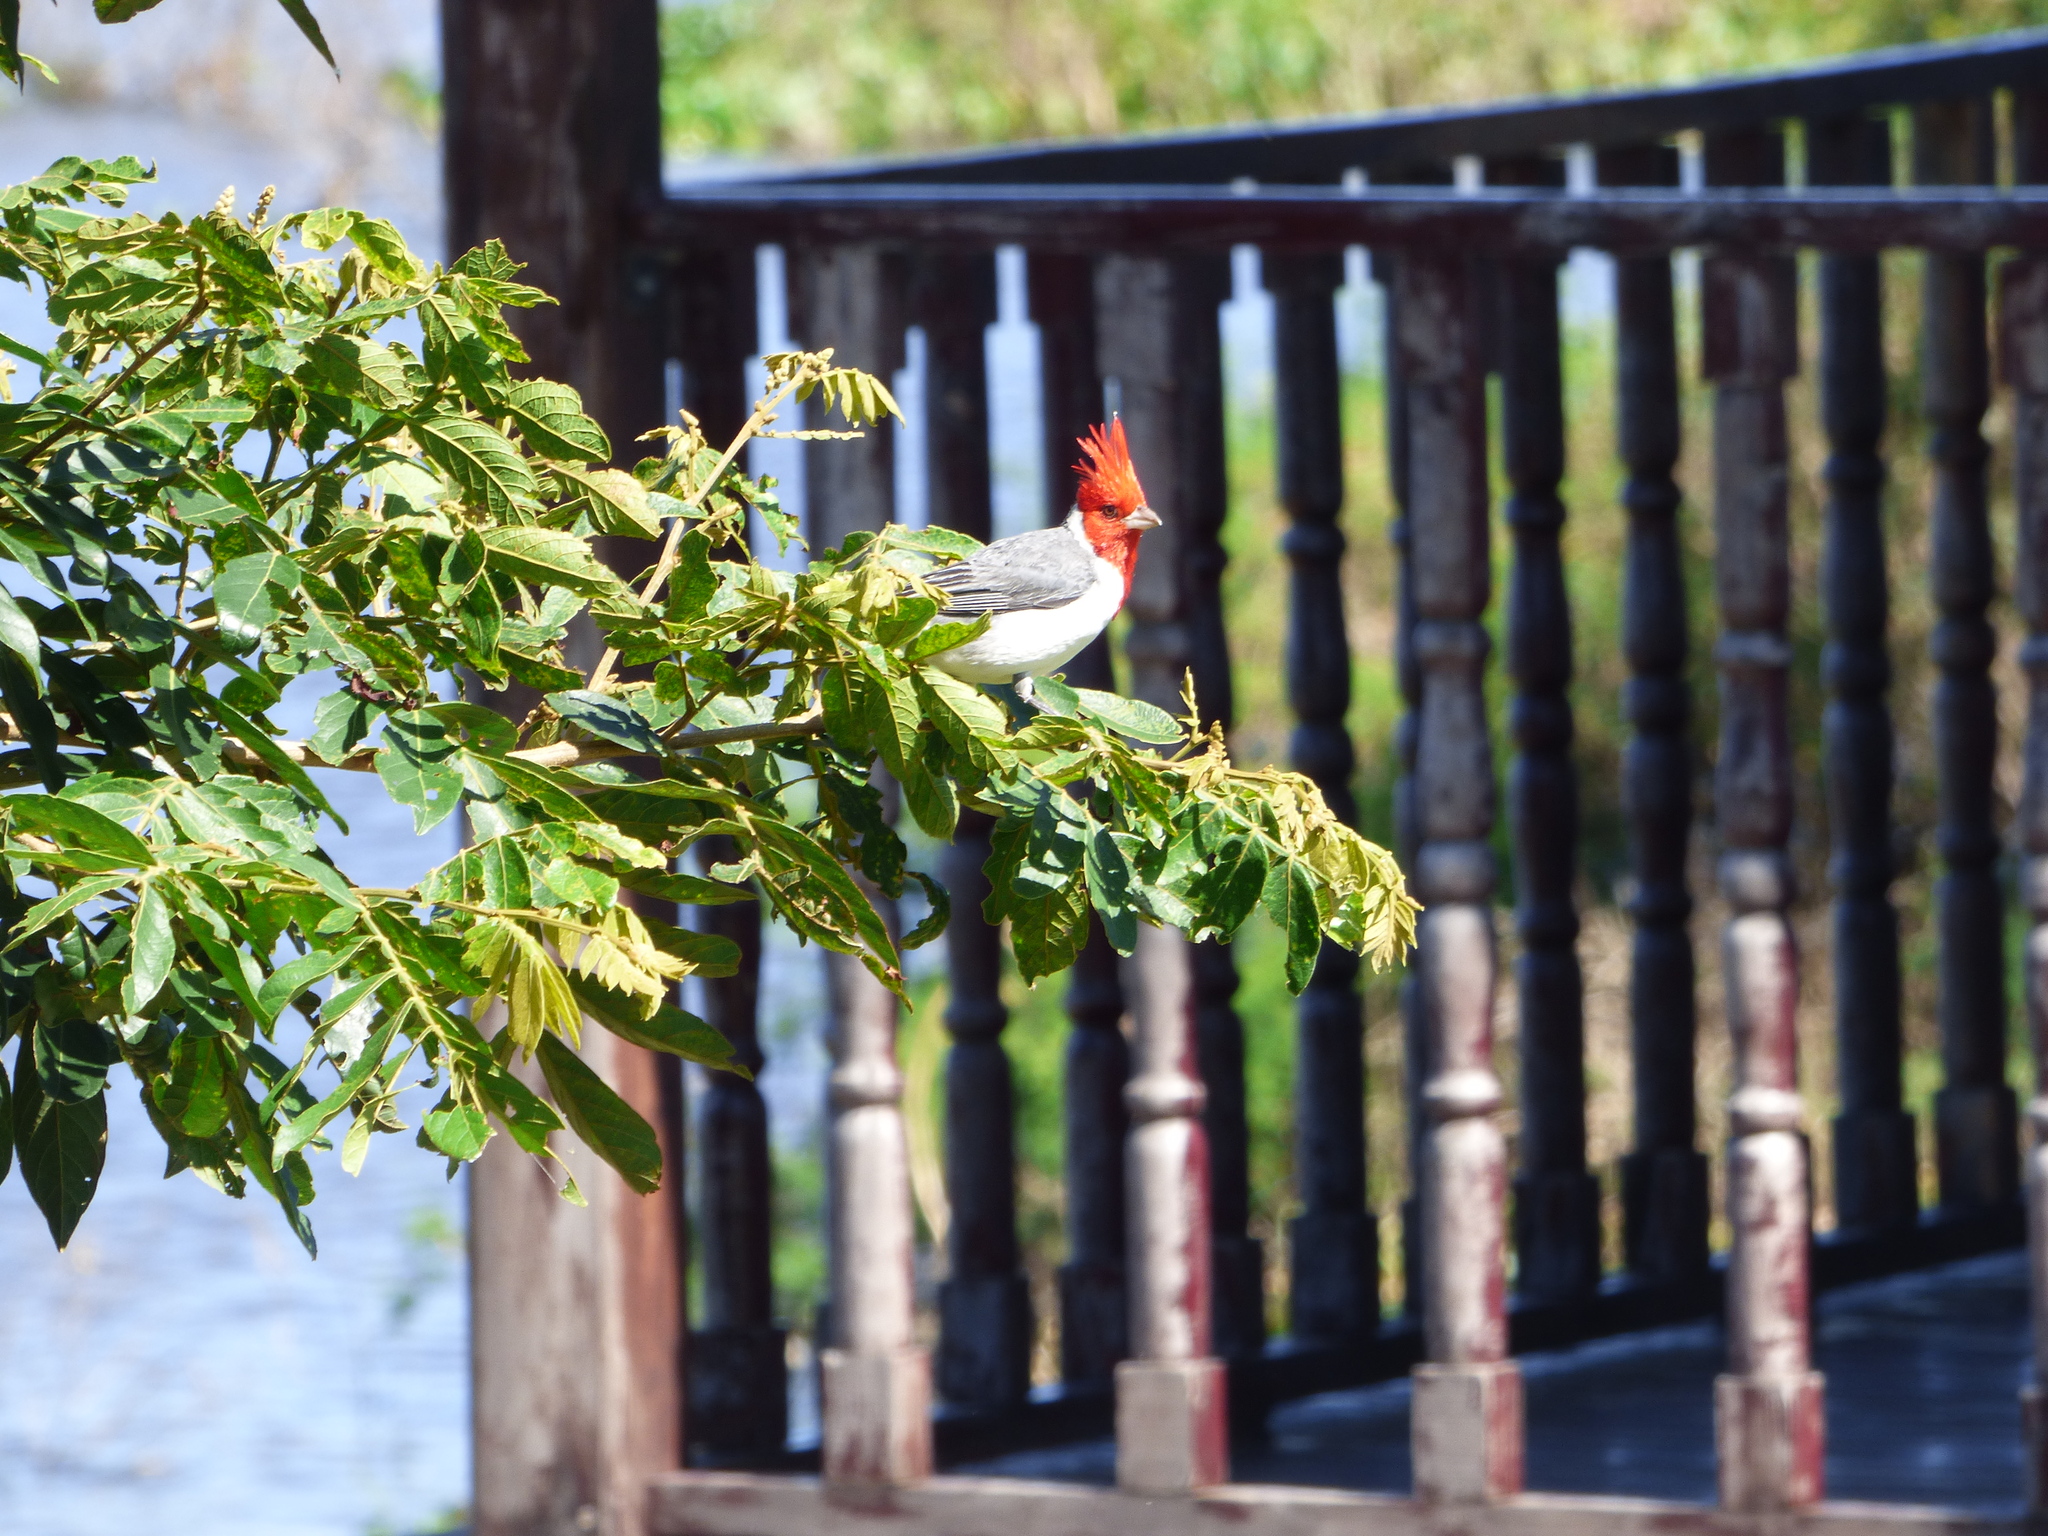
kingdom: Animalia
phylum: Chordata
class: Aves
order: Passeriformes
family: Thraupidae
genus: Paroaria
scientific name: Paroaria coronata
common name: Red-crested cardinal
